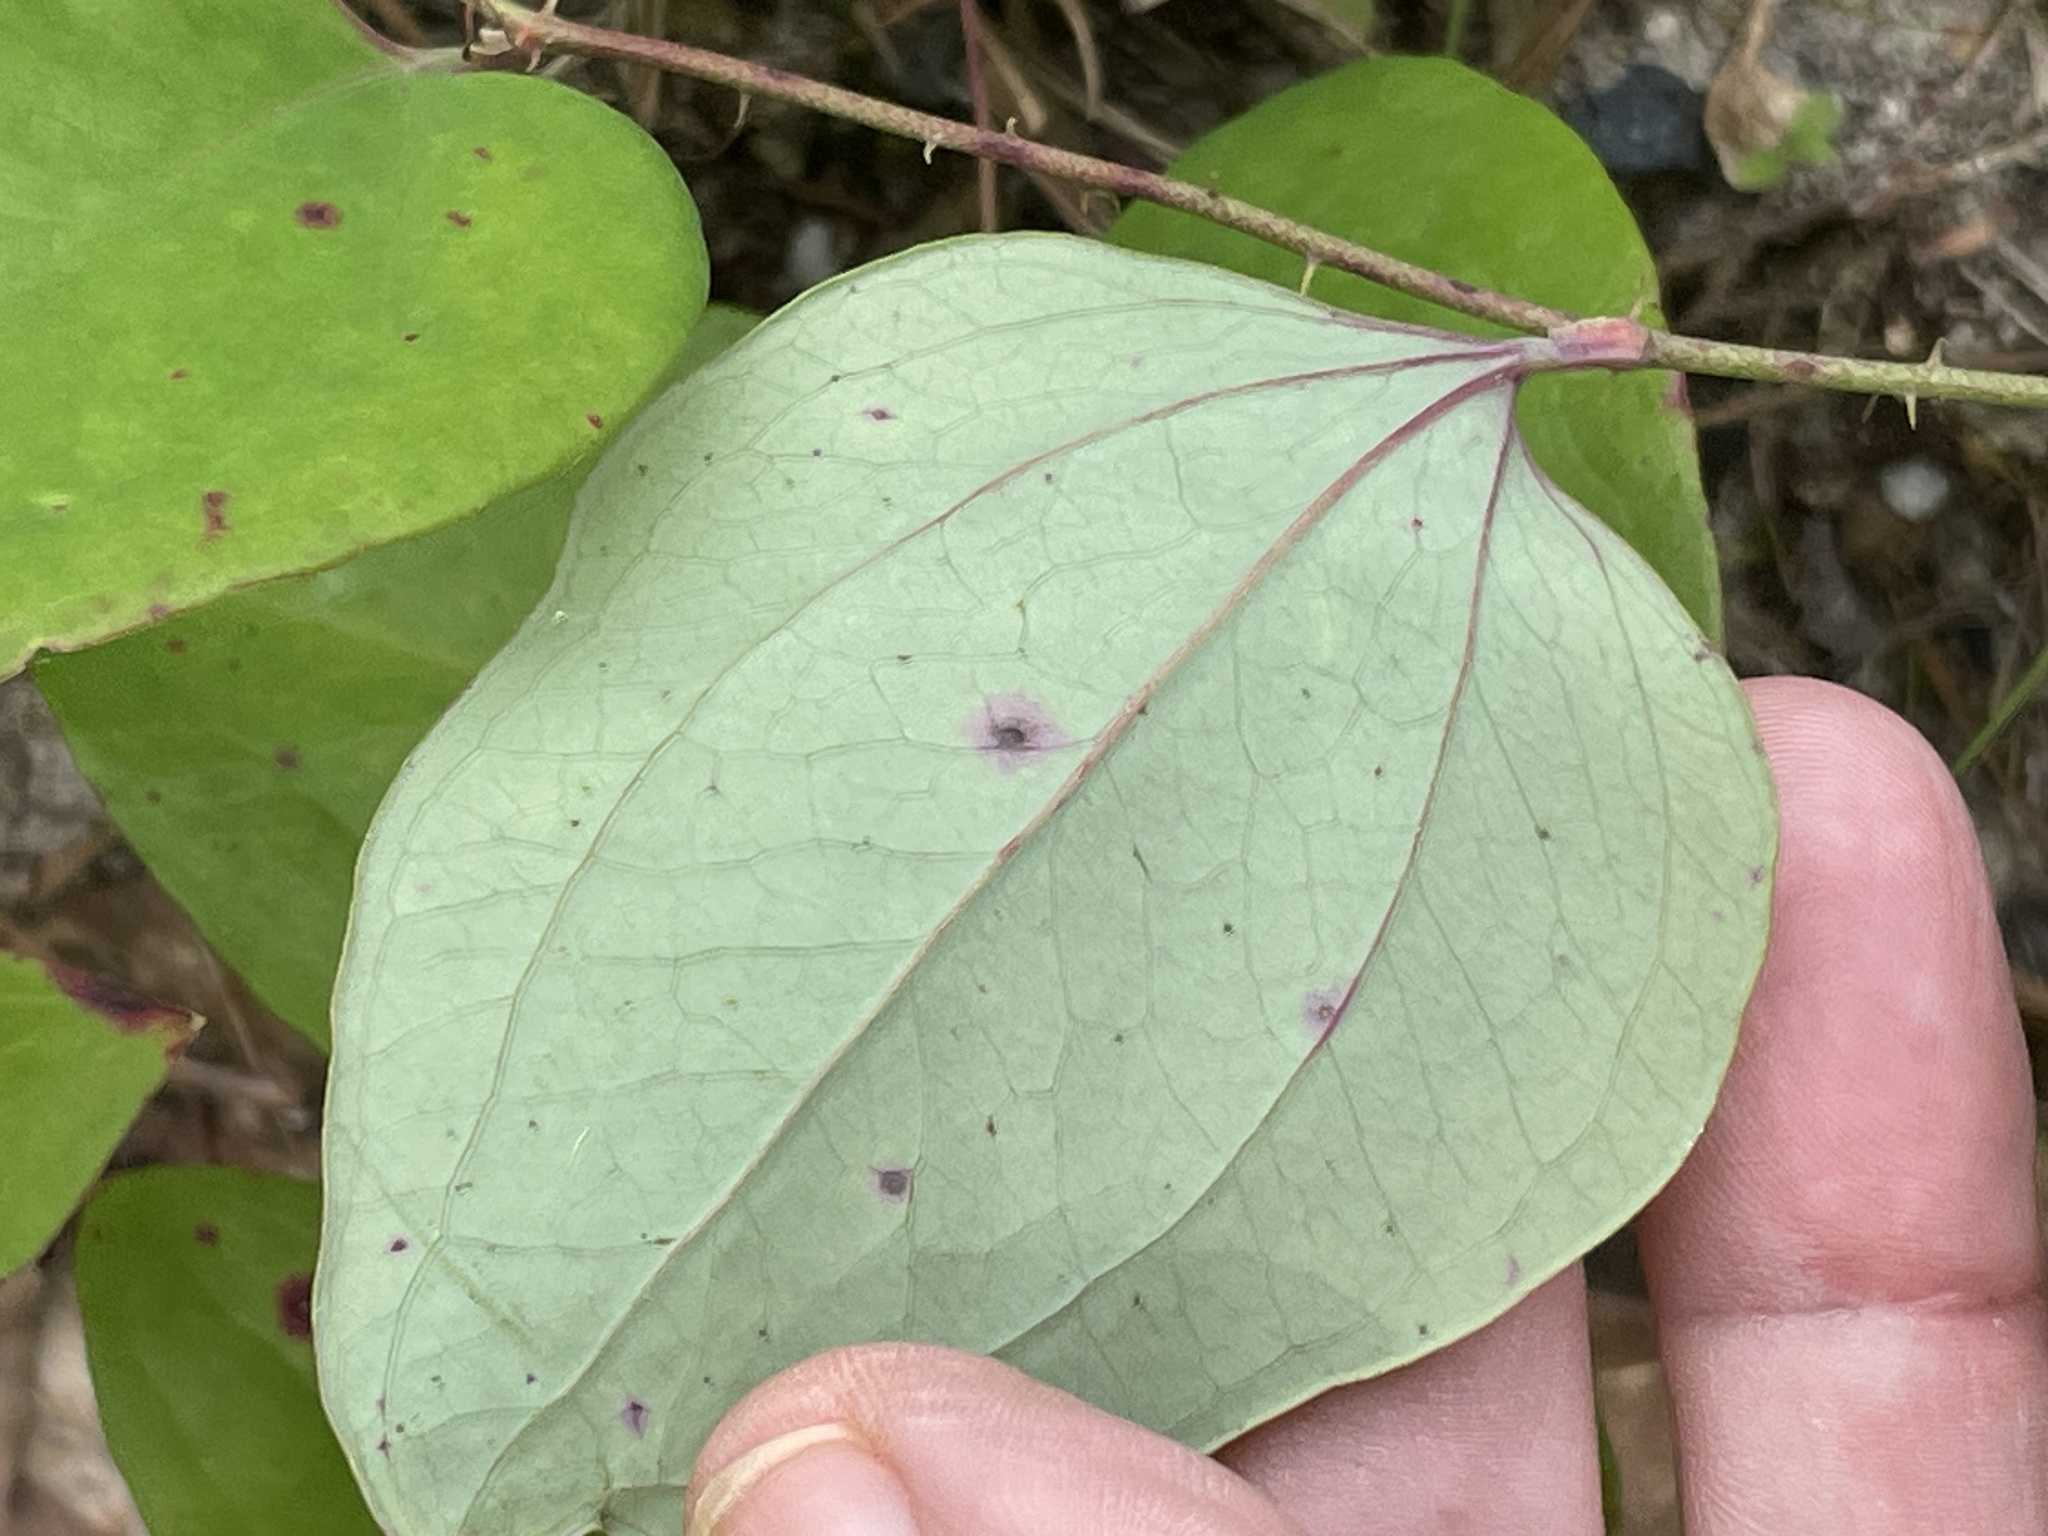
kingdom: Plantae
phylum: Tracheophyta
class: Liliopsida
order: Liliales
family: Smilacaceae
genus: Smilax
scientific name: Smilax glauca
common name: Cat greenbrier
